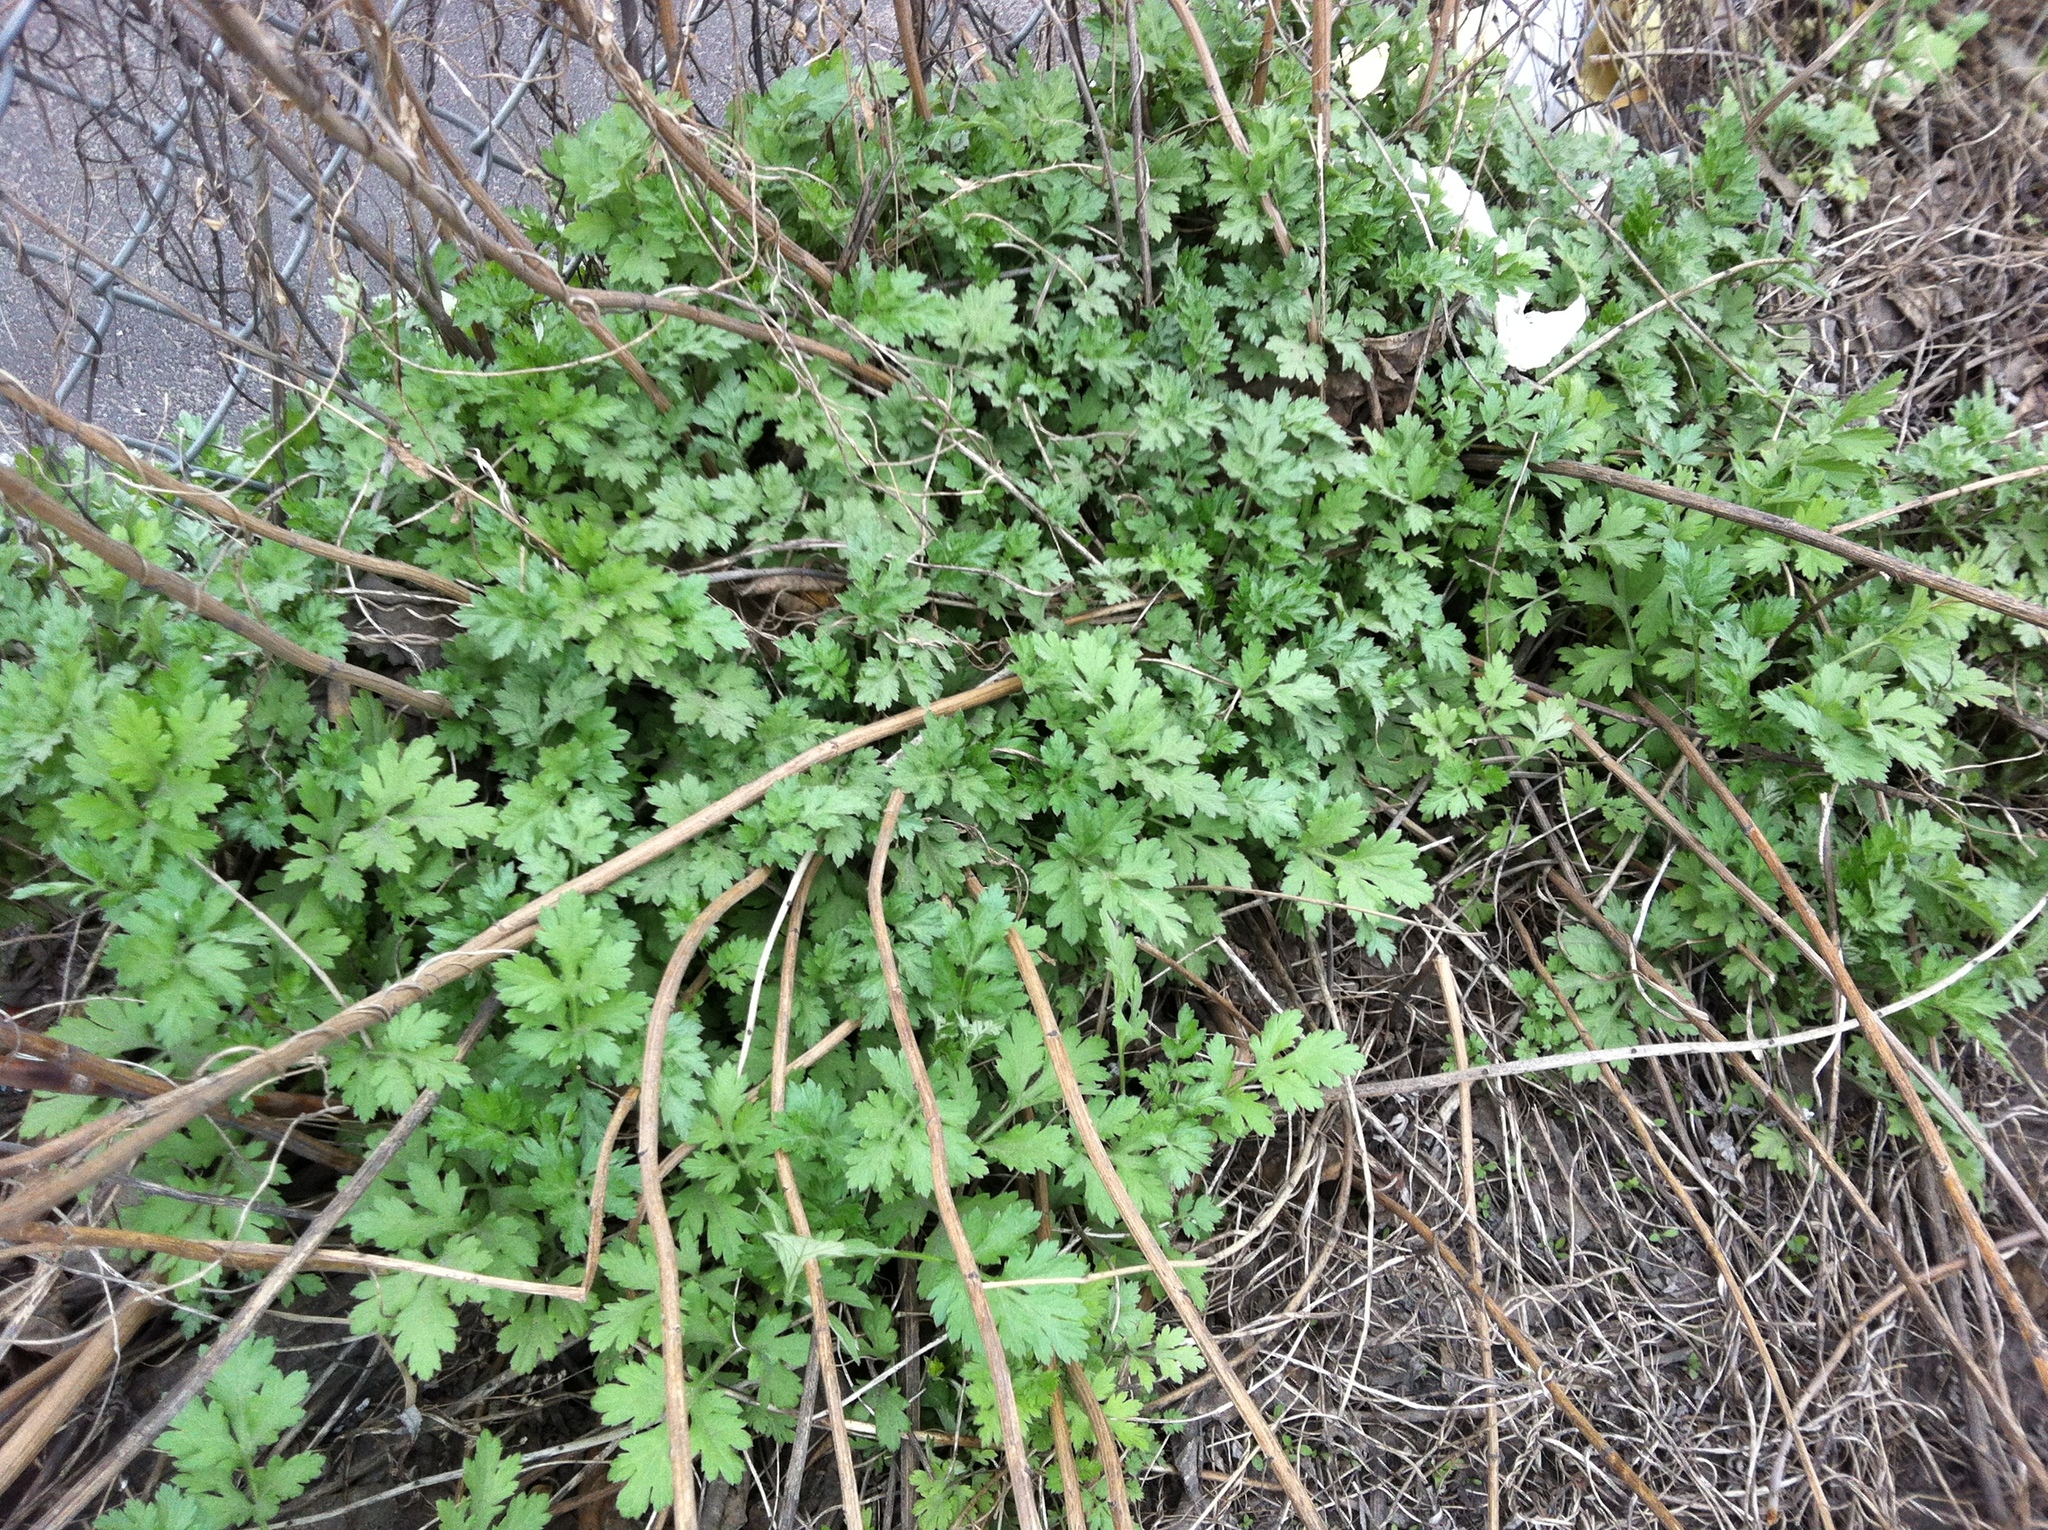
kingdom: Plantae
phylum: Tracheophyta
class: Magnoliopsida
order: Asterales
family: Asteraceae
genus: Artemisia
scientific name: Artemisia vulgaris
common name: Mugwort
